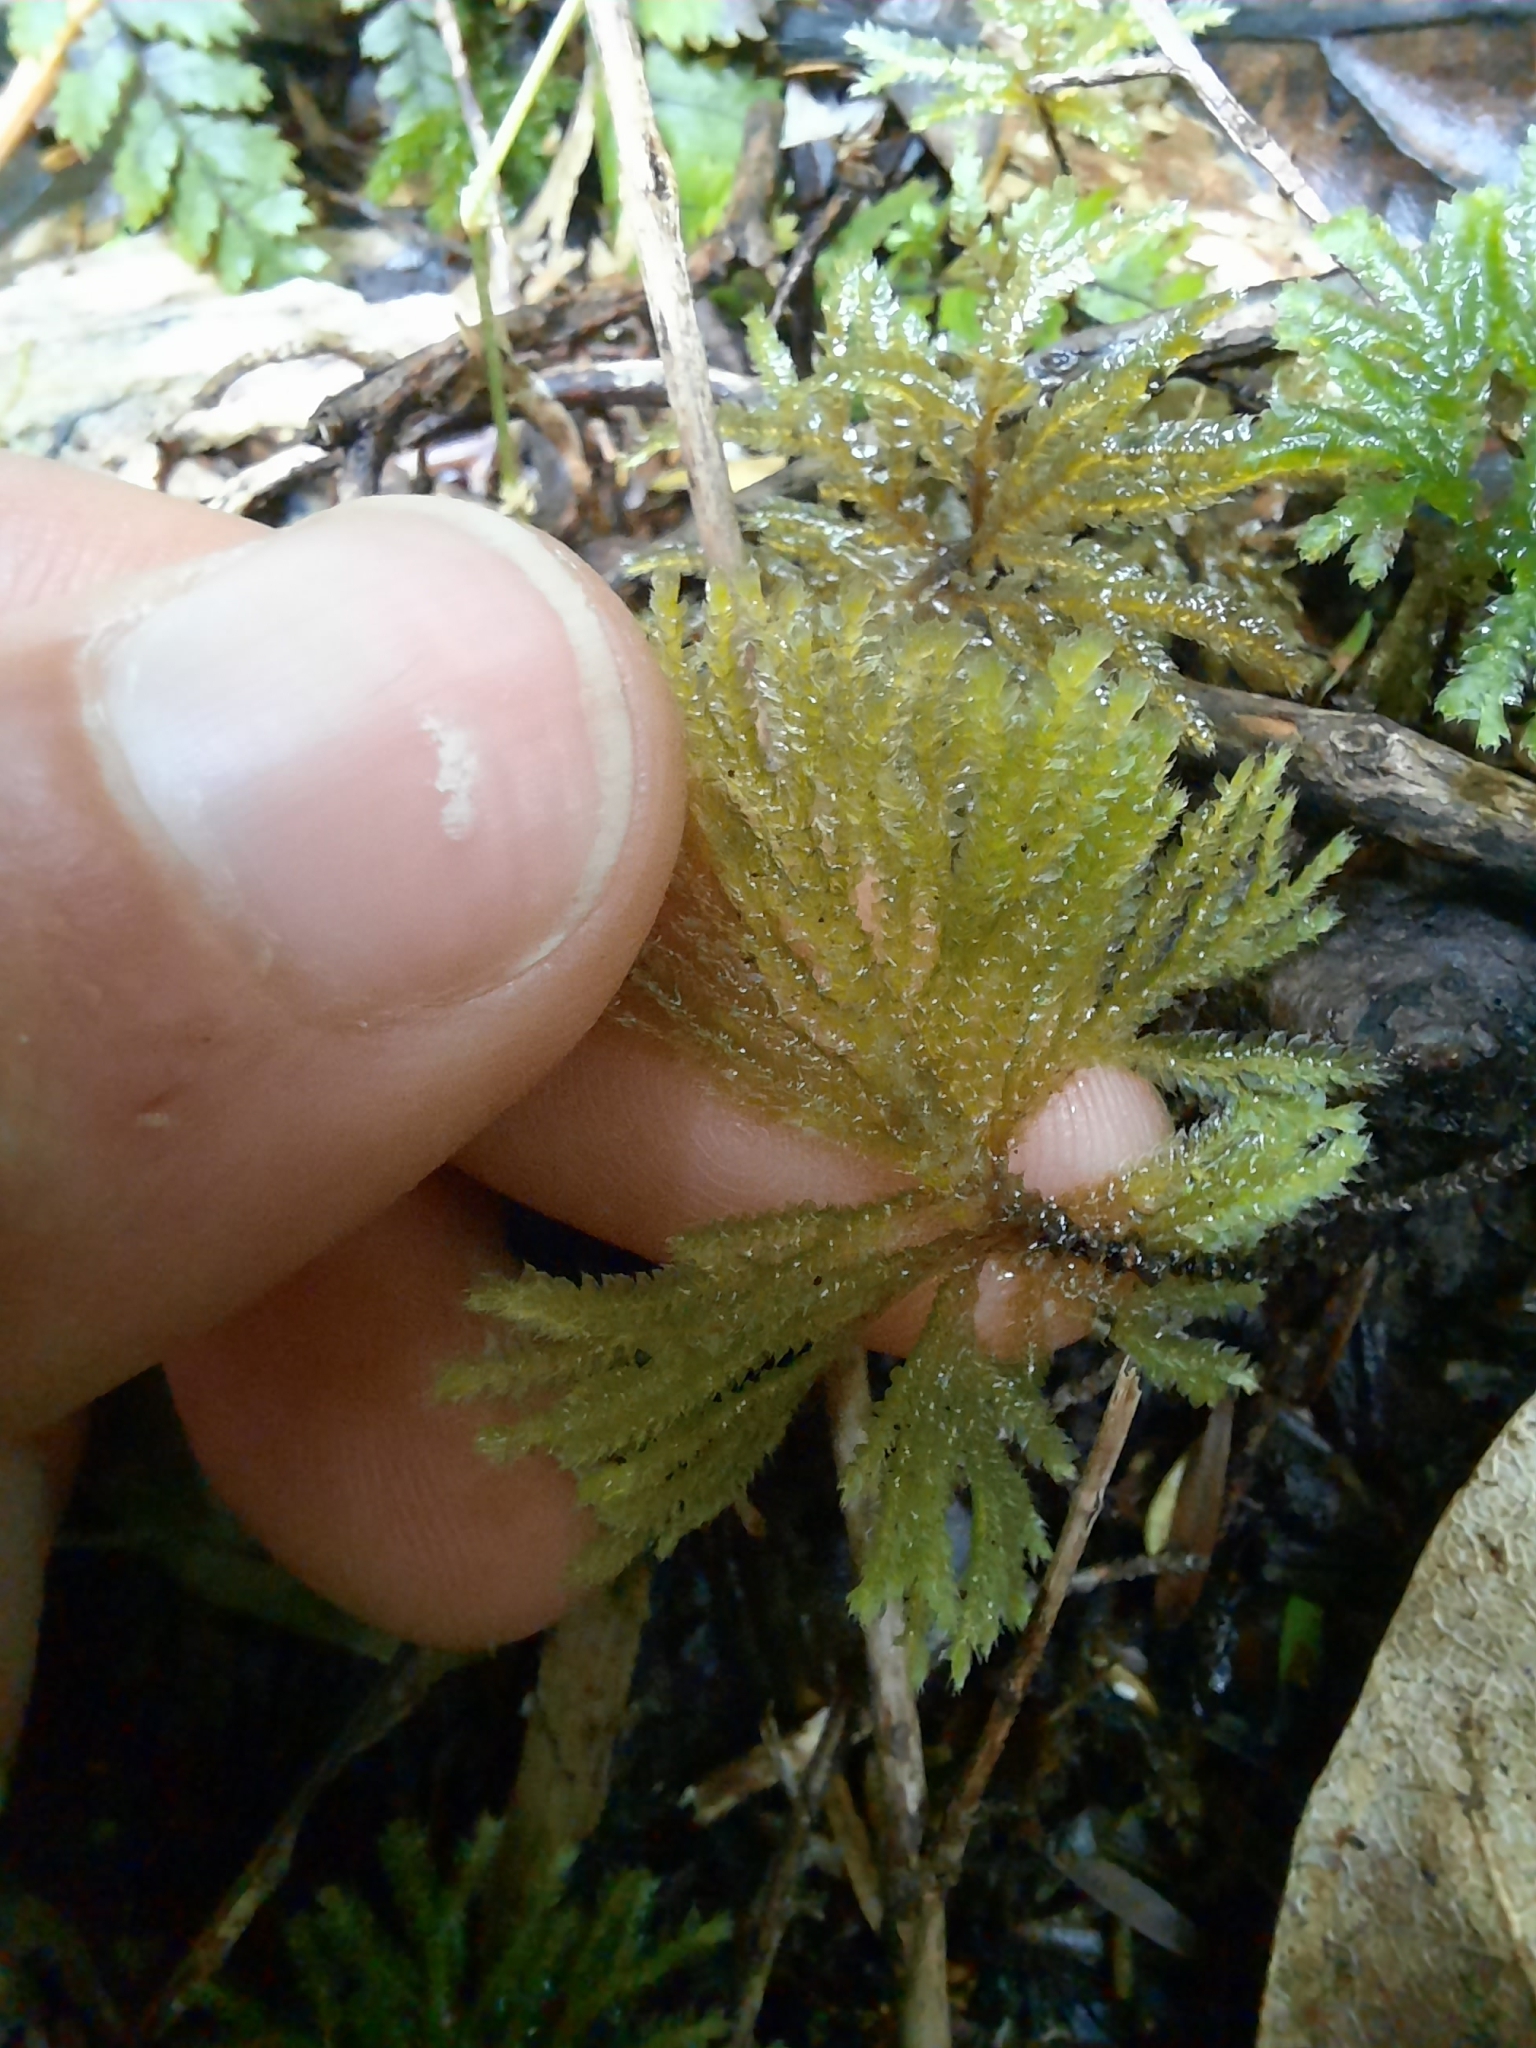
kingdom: Plantae
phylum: Bryophyta
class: Bryopsida
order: Hypopterygiales
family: Hypopterygiaceae
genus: Canalohypopterygium
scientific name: Canalohypopterygium tamariscinum
